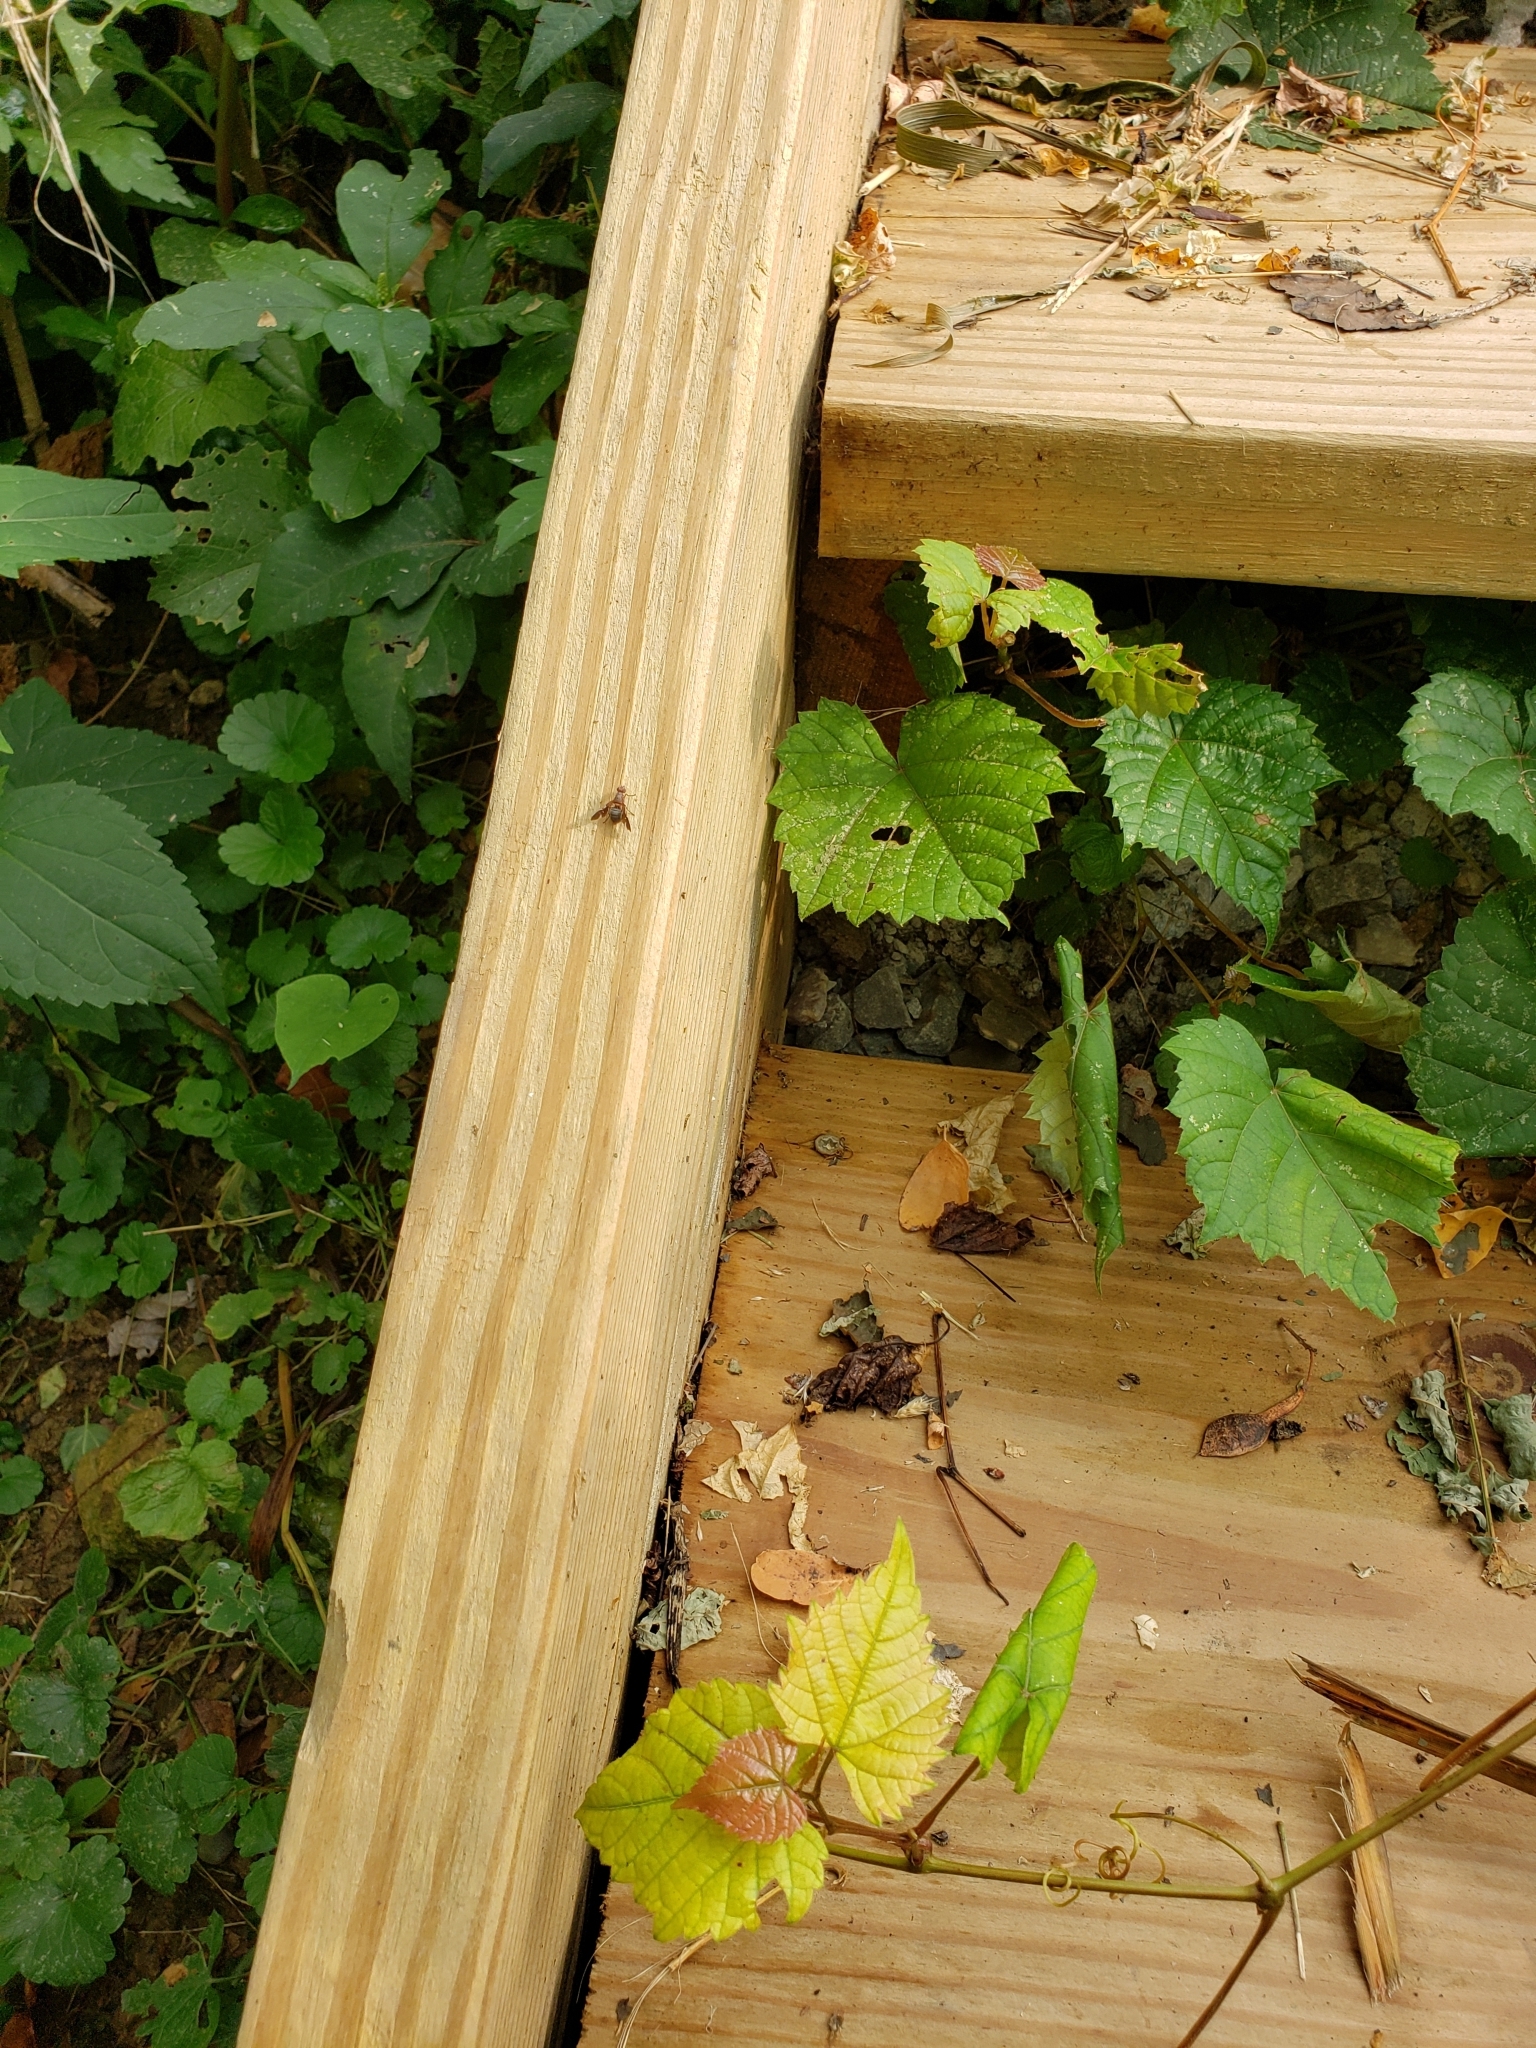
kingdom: Animalia
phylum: Arthropoda
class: Insecta
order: Diptera
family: Ulidiidae
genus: Delphinia
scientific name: Delphinia picta
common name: Common picture-winged fly
